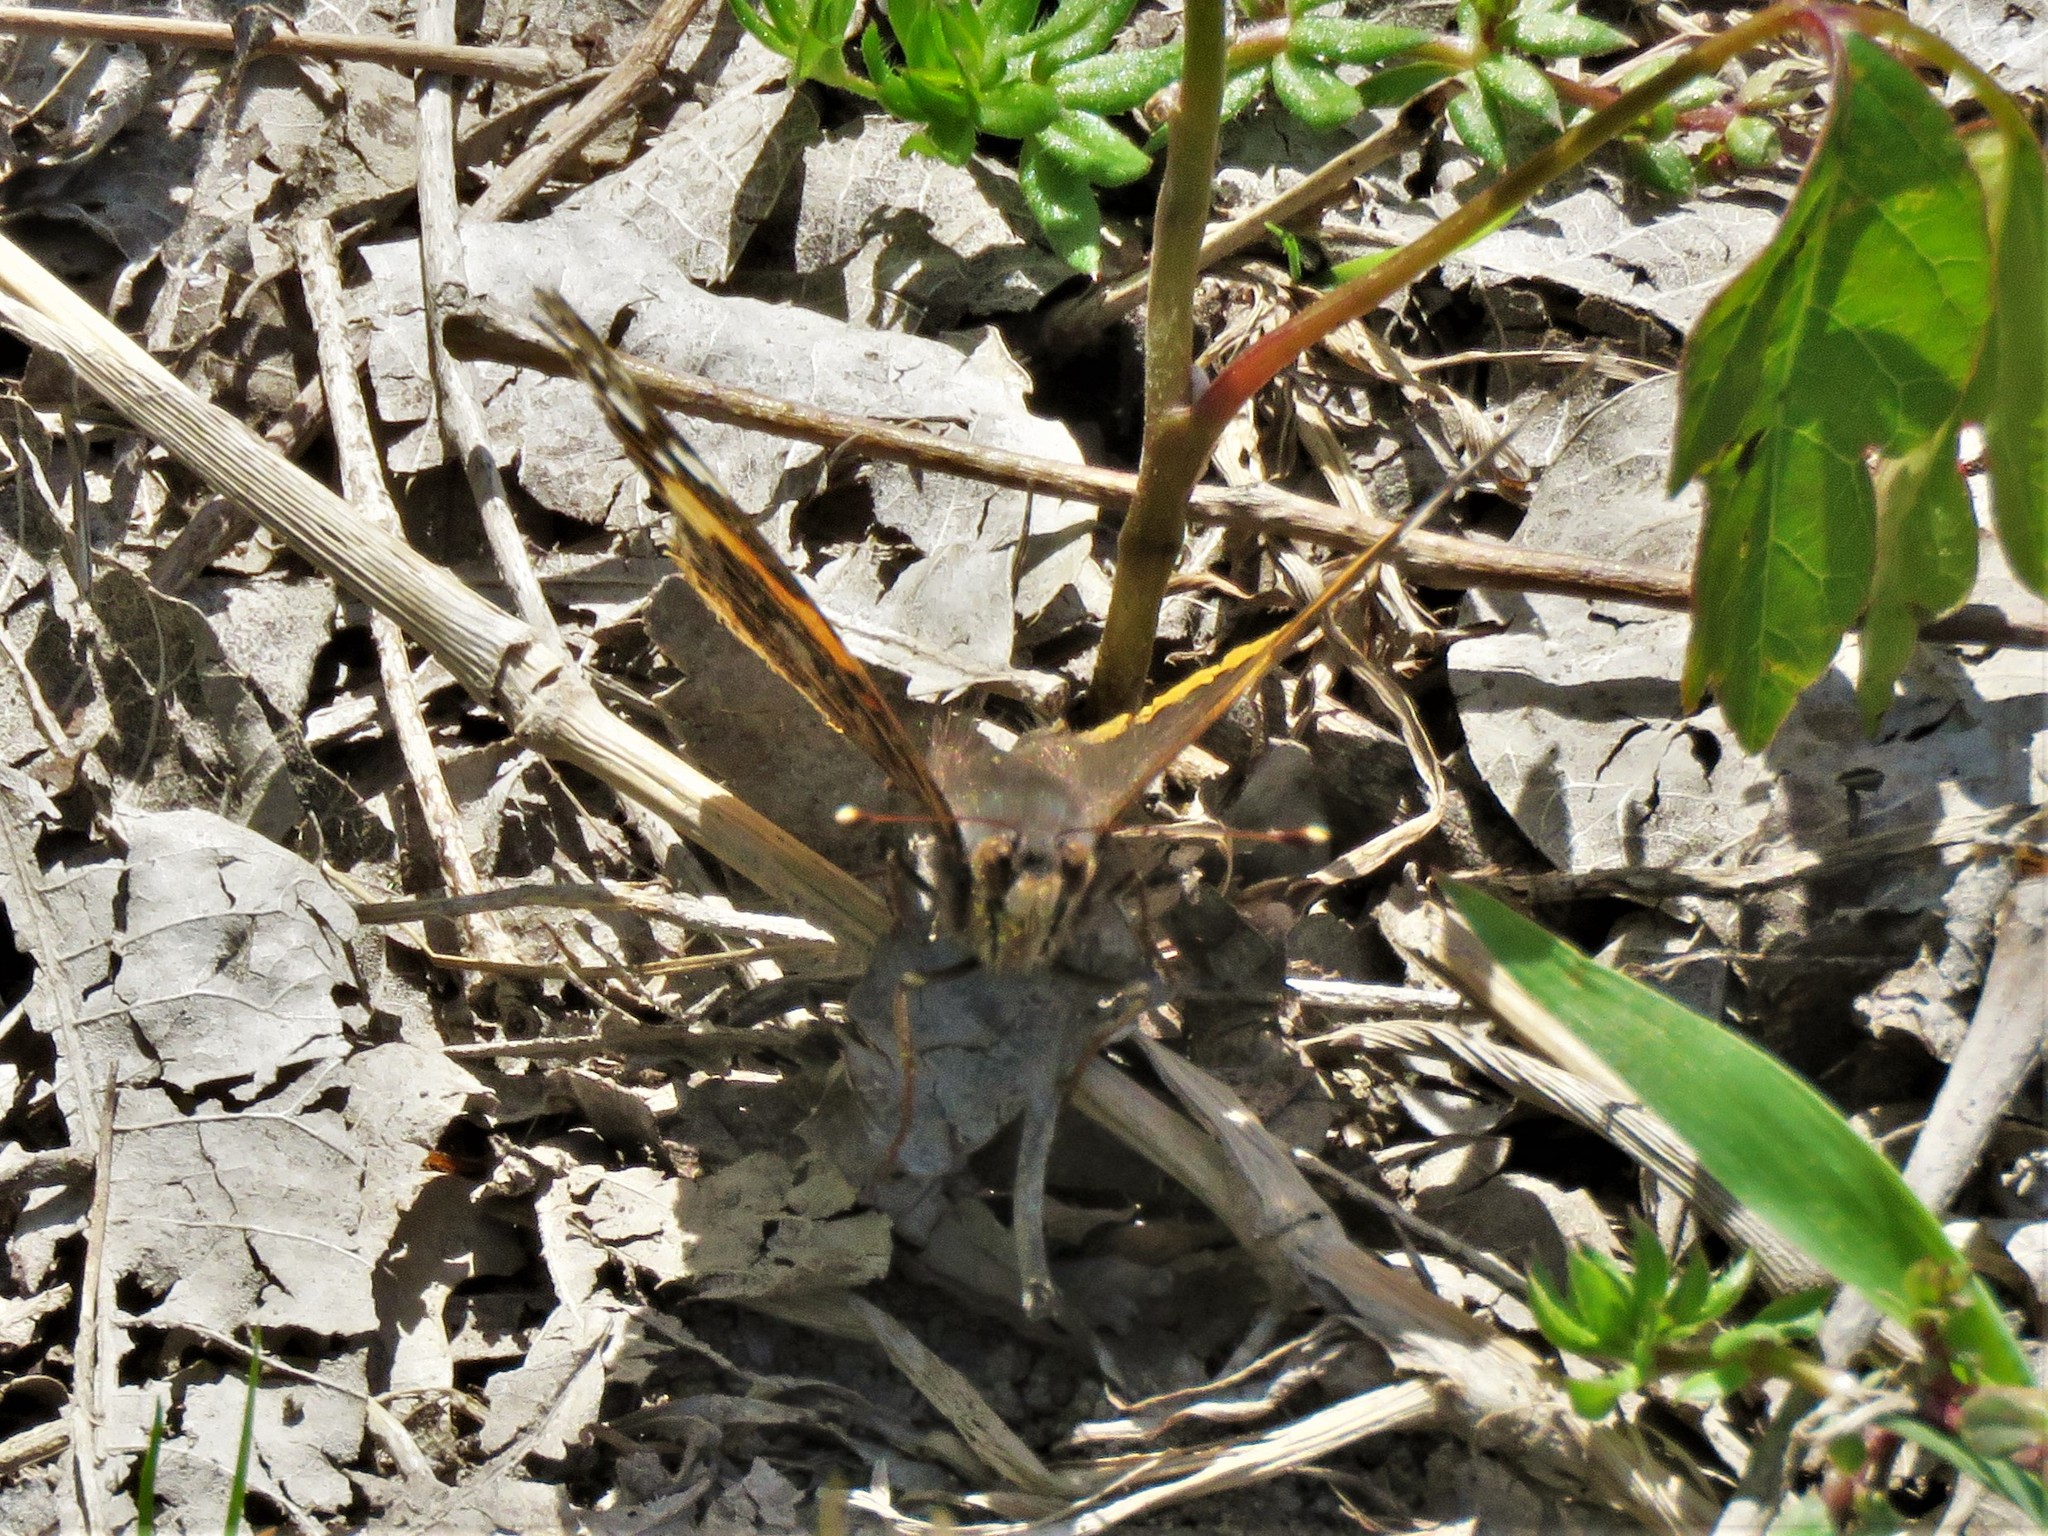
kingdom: Animalia
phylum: Arthropoda
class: Insecta
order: Lepidoptera
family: Nymphalidae
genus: Vanessa
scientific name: Vanessa atalanta
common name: Red admiral
